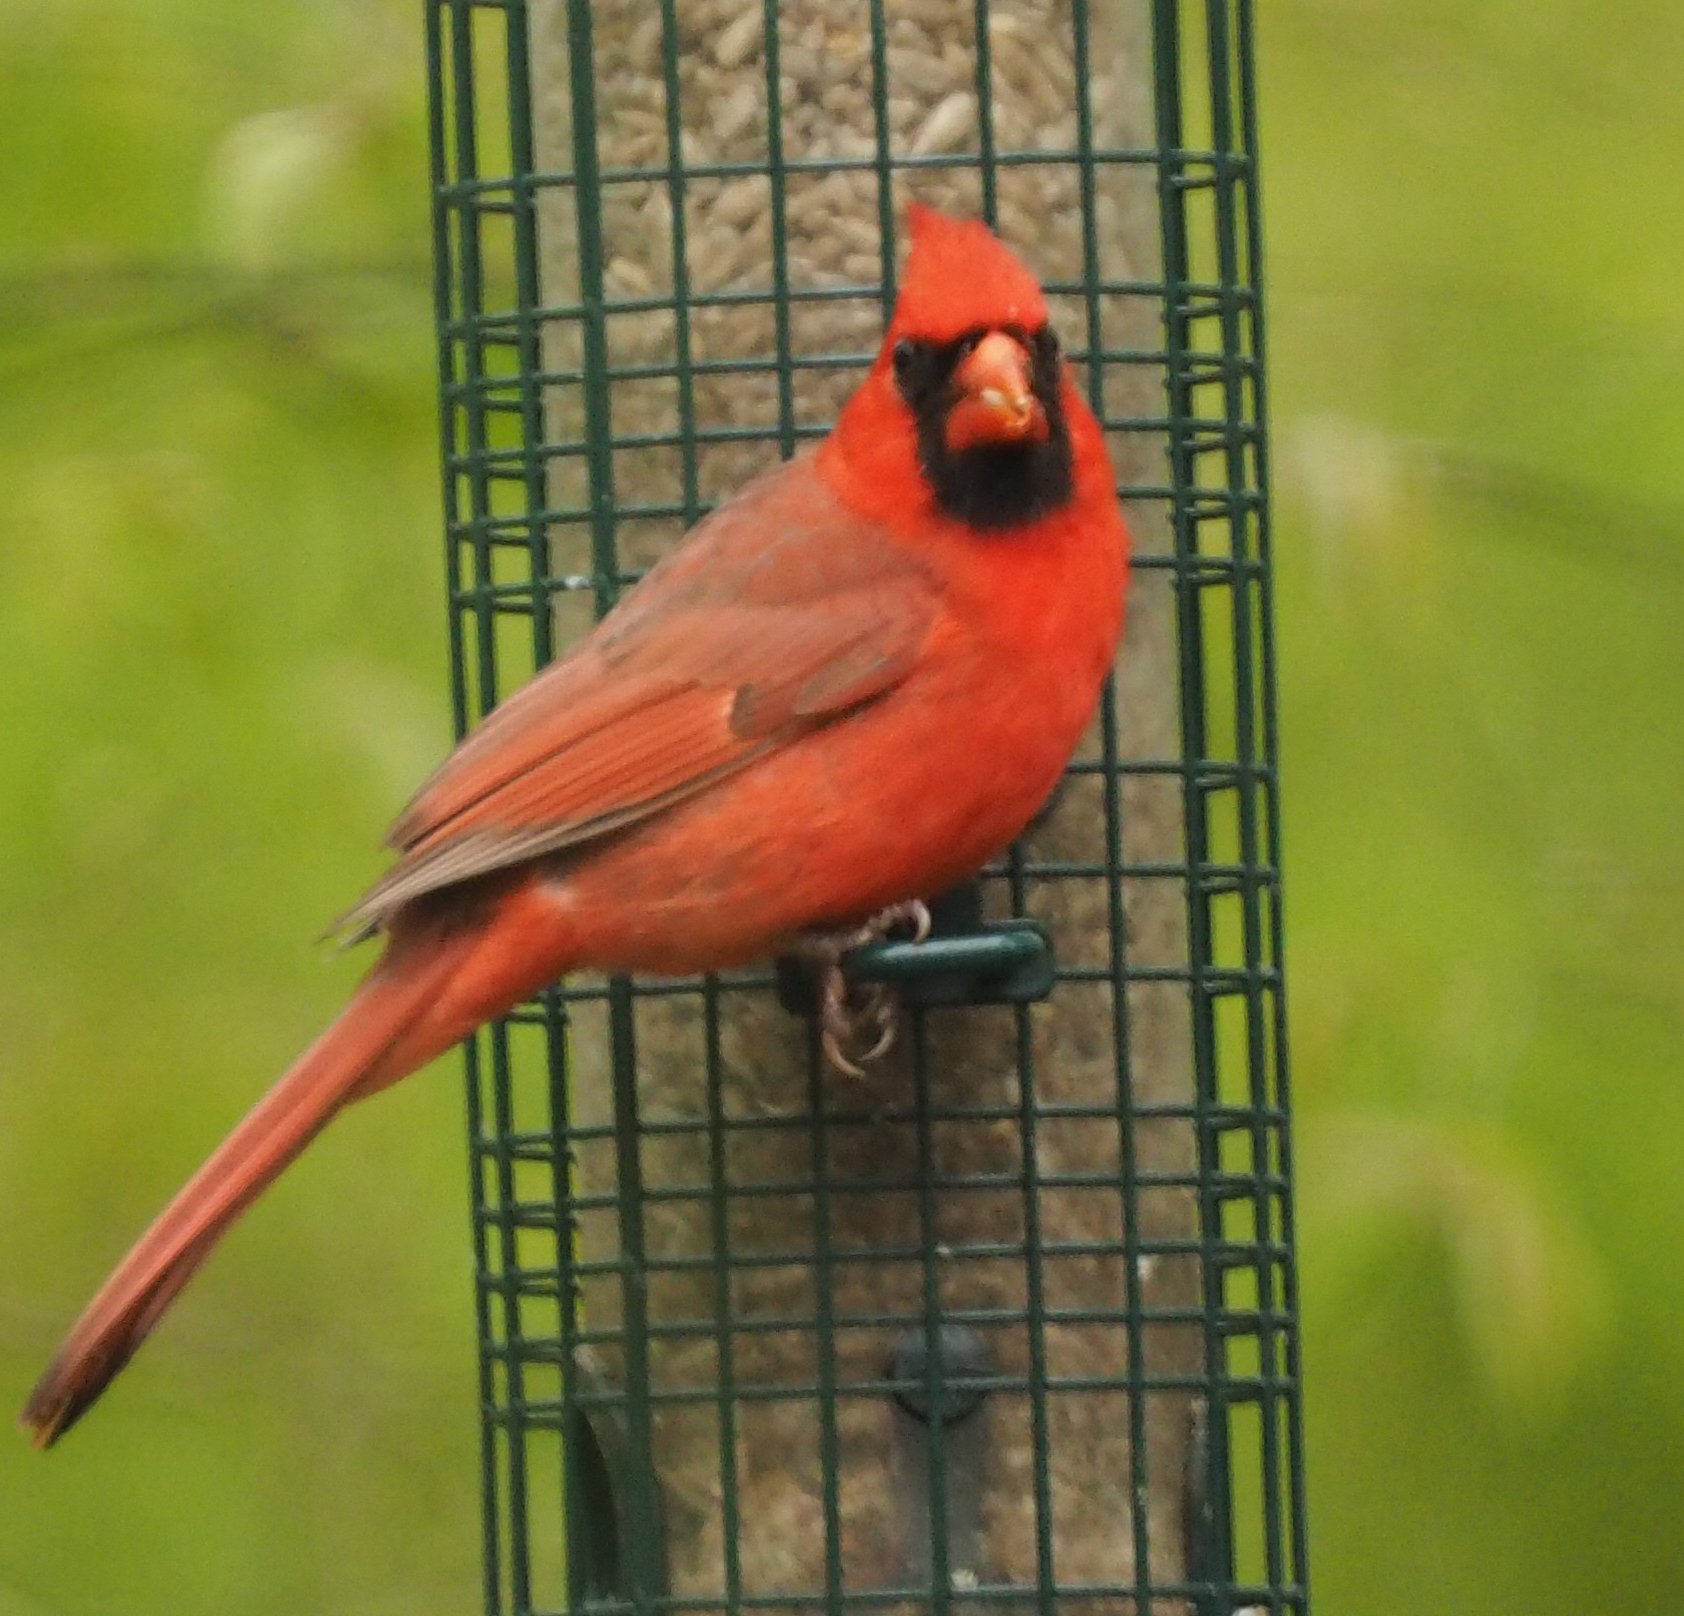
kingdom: Animalia
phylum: Chordata
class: Aves
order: Passeriformes
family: Cardinalidae
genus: Cardinalis
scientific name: Cardinalis cardinalis
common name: Northern cardinal
